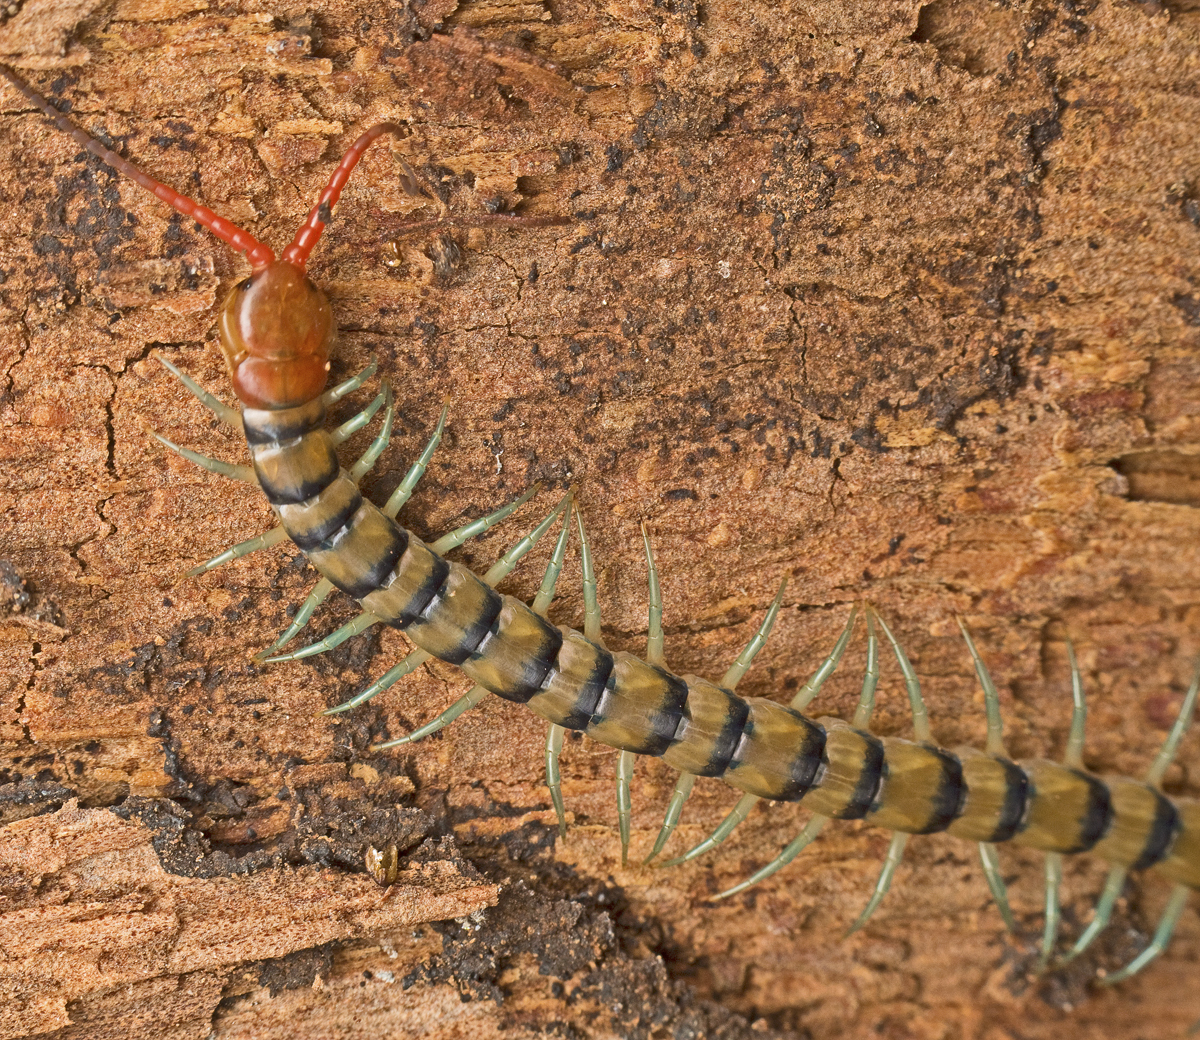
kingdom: Animalia
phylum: Arthropoda
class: Chilopoda
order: Scolopendromorpha
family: Scolopendridae
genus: Scolopendra
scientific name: Scolopendra morsitans
